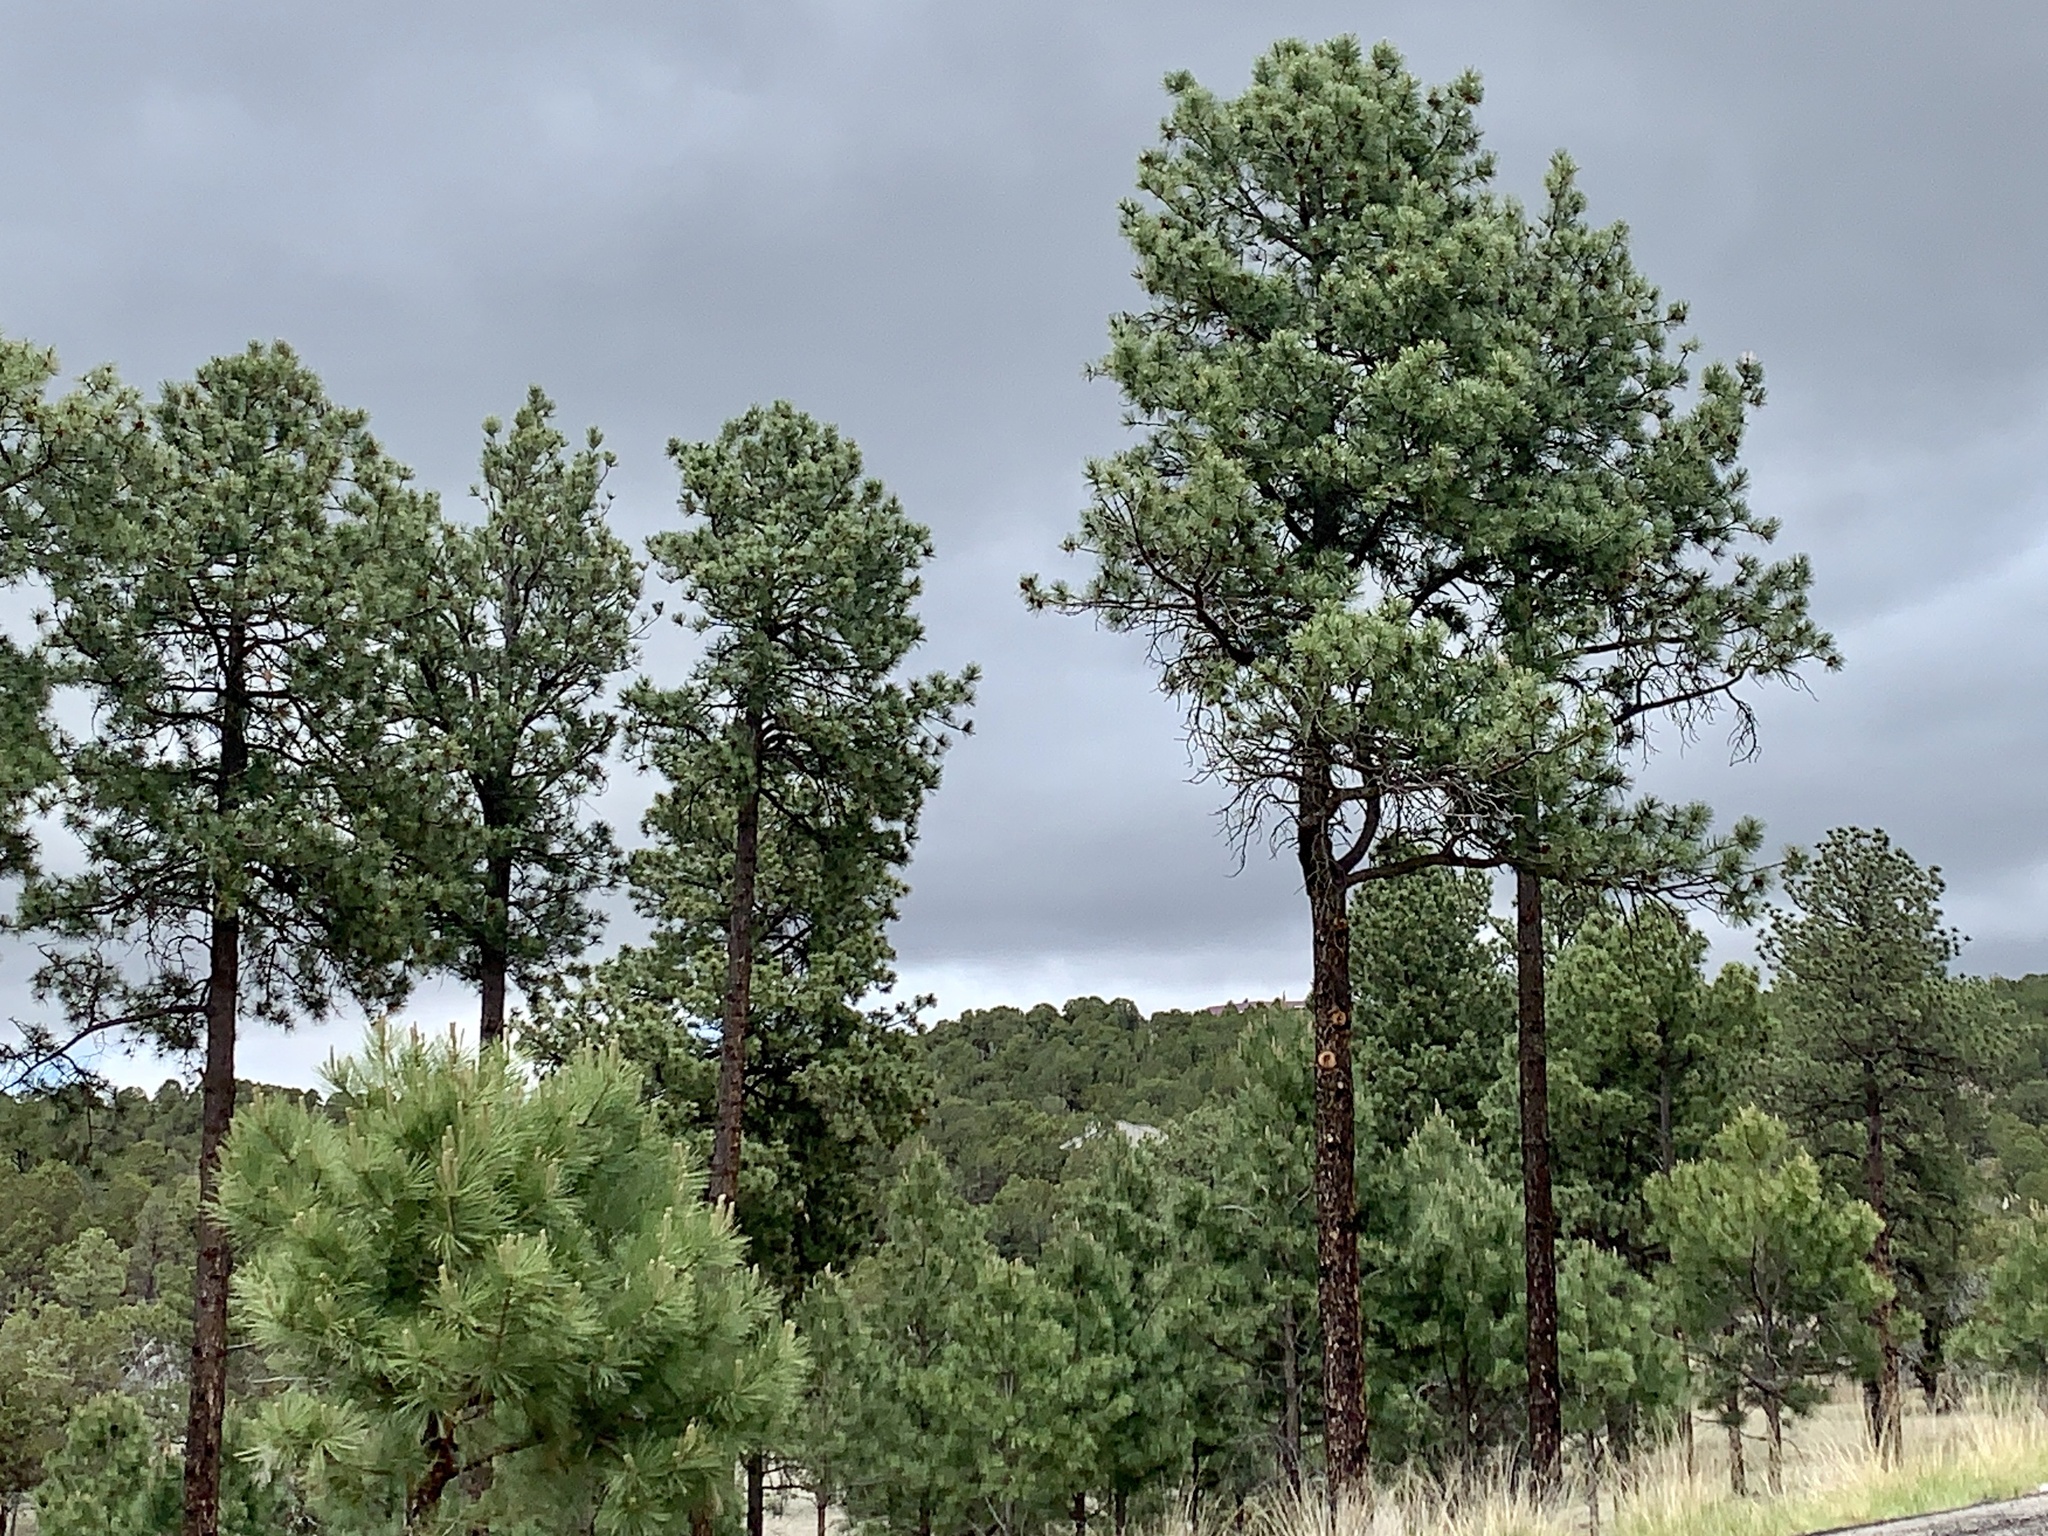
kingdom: Plantae
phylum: Tracheophyta
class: Pinopsida
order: Pinales
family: Pinaceae
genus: Pinus
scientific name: Pinus ponderosa
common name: Western yellow-pine
